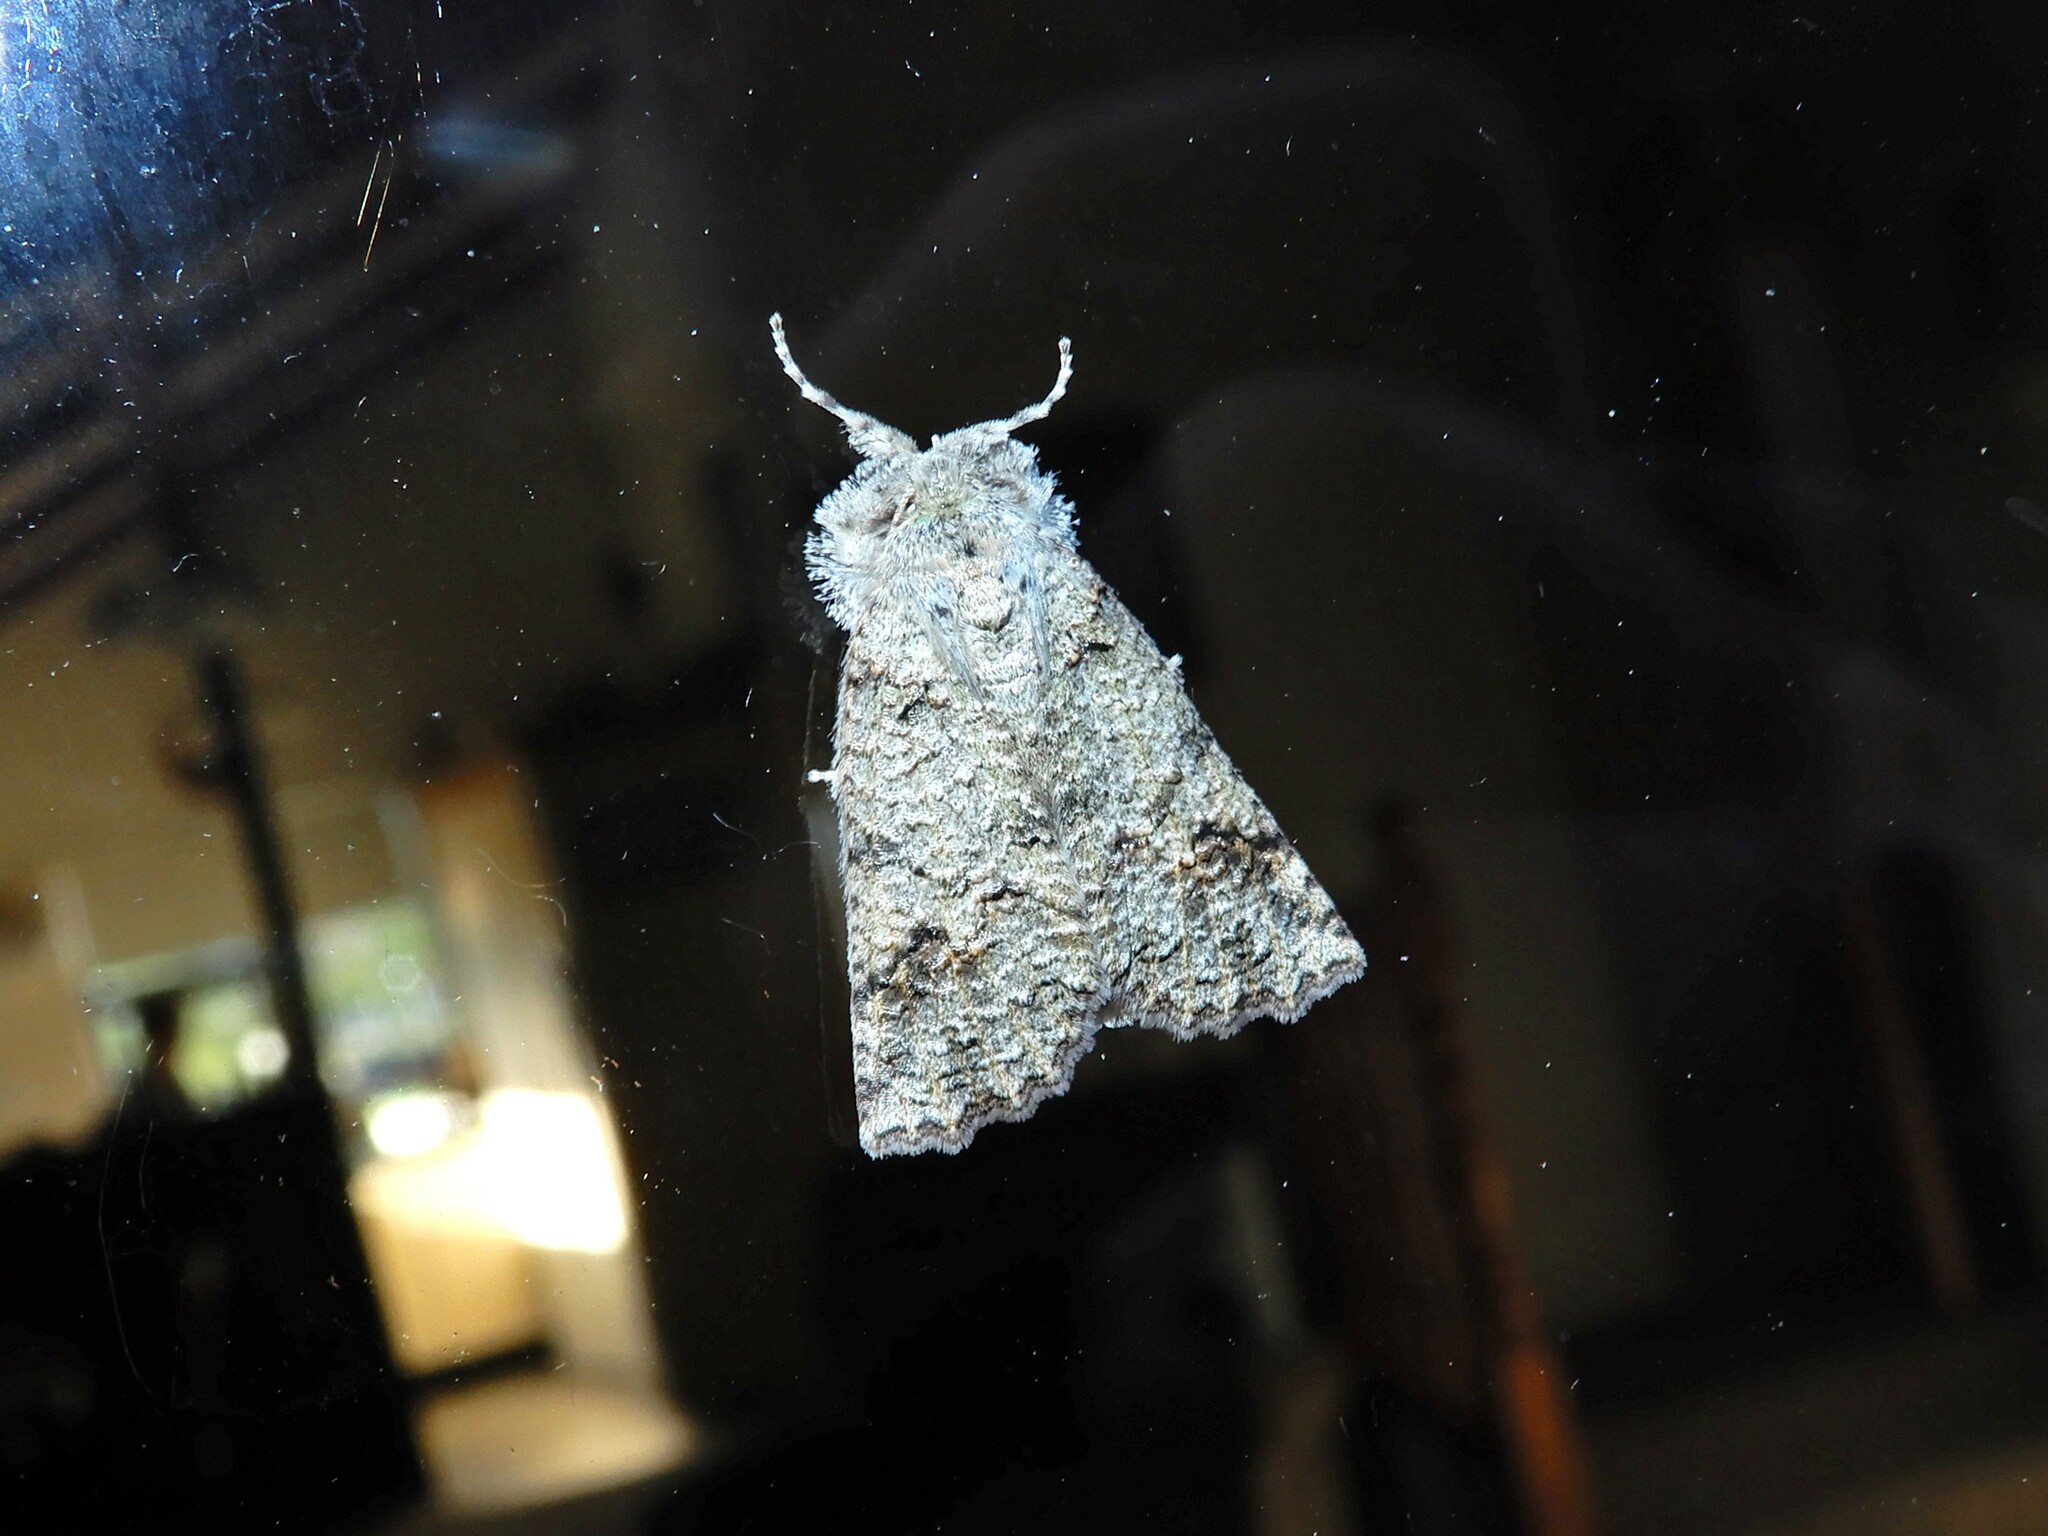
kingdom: Animalia
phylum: Arthropoda
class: Insecta
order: Lepidoptera
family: Geometridae
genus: Declana
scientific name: Declana floccosa
